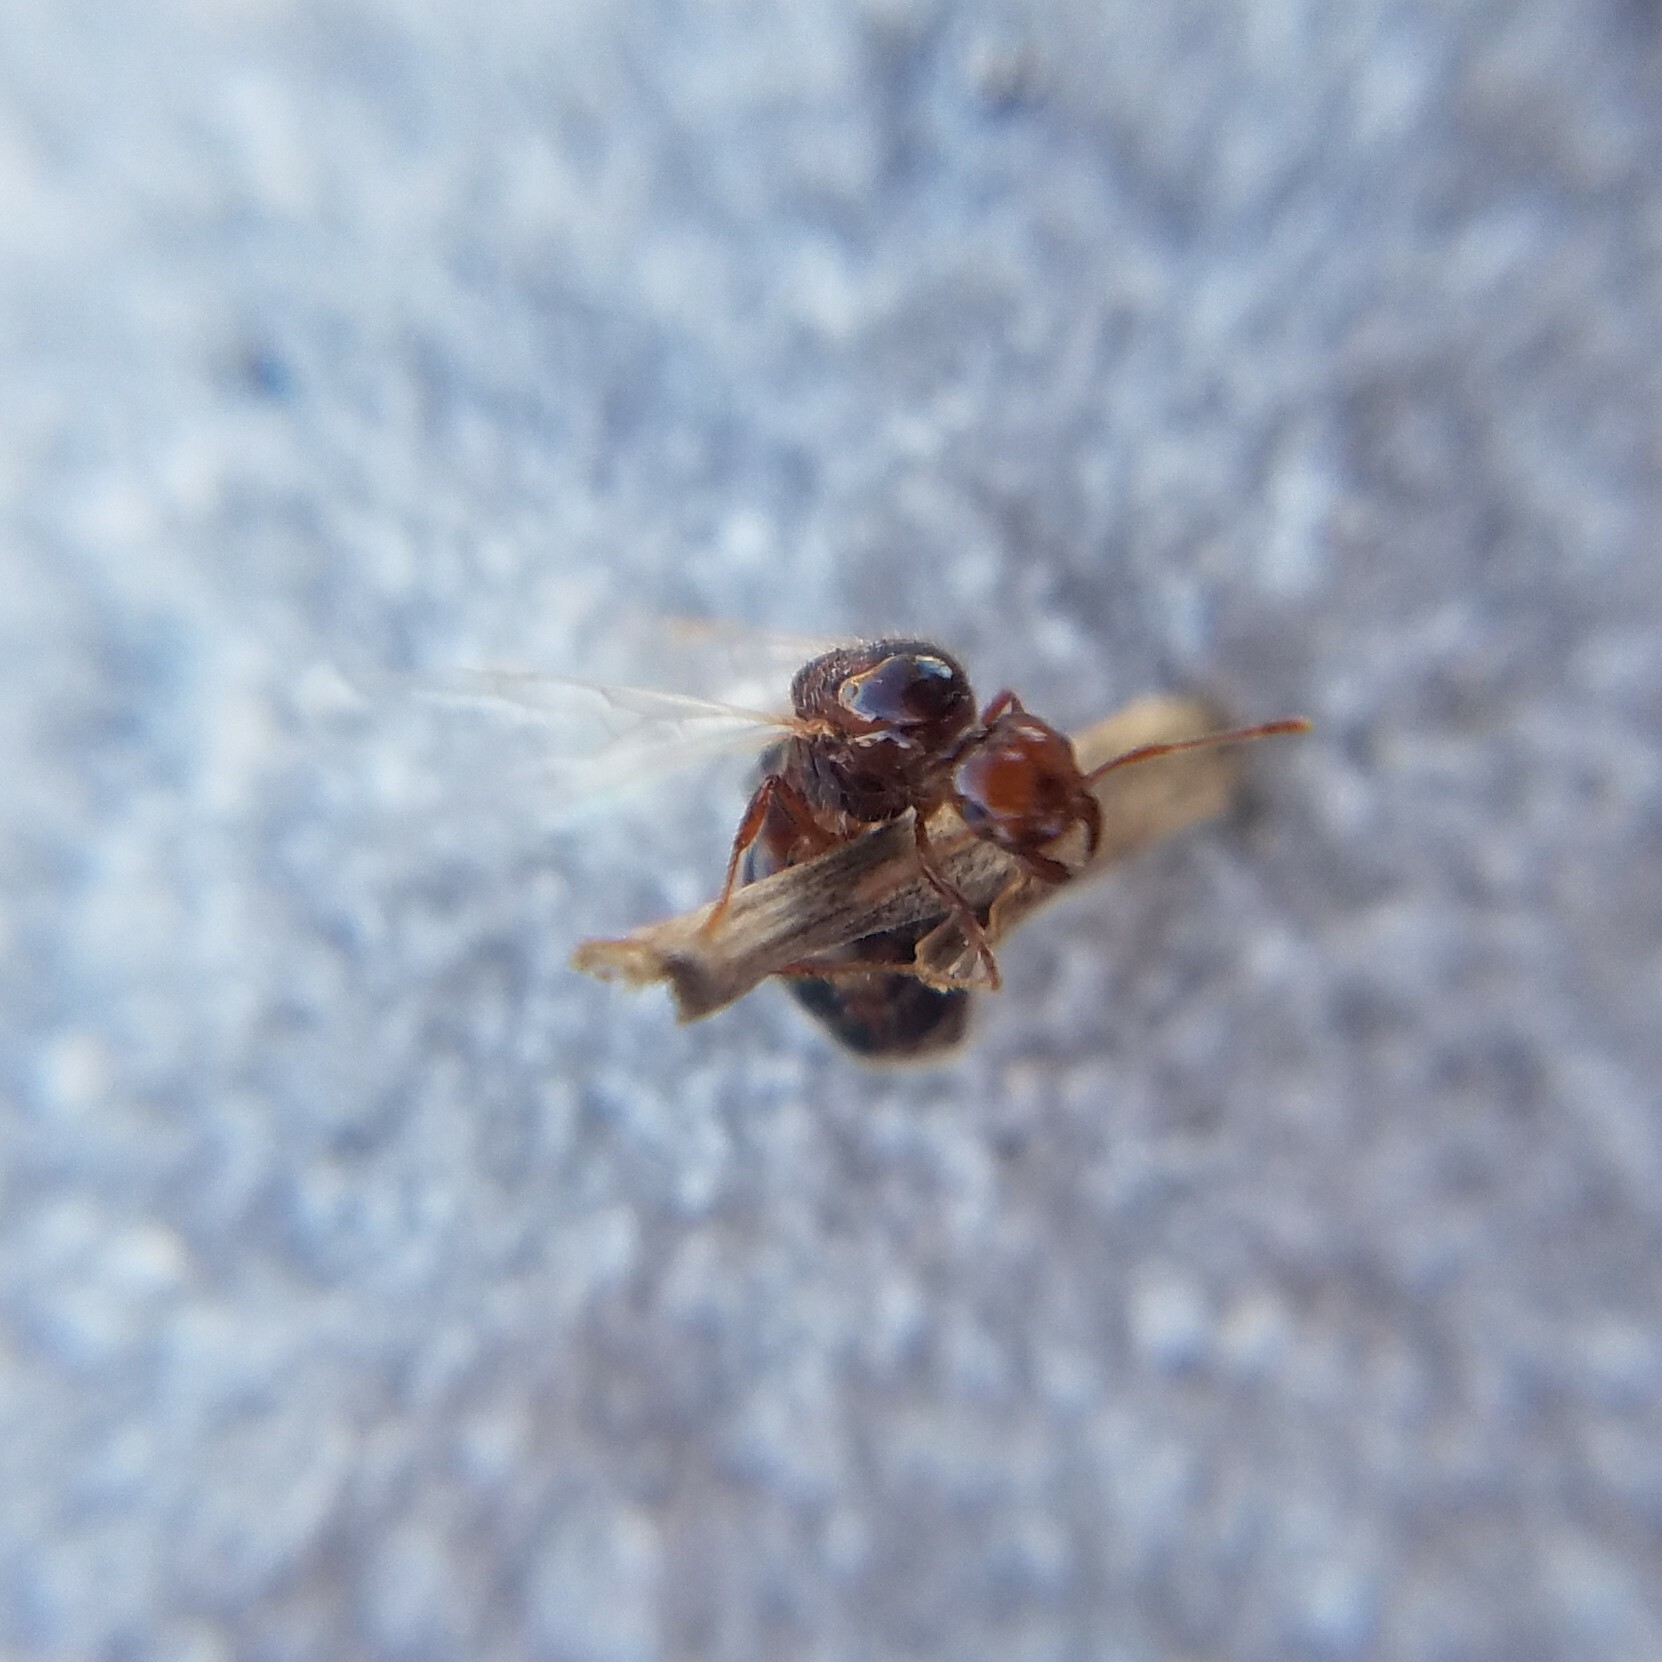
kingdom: Animalia
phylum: Arthropoda
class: Insecta
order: Hymenoptera
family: Formicidae
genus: Solenopsis
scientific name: Solenopsis invicta
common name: Red imported fire ant
